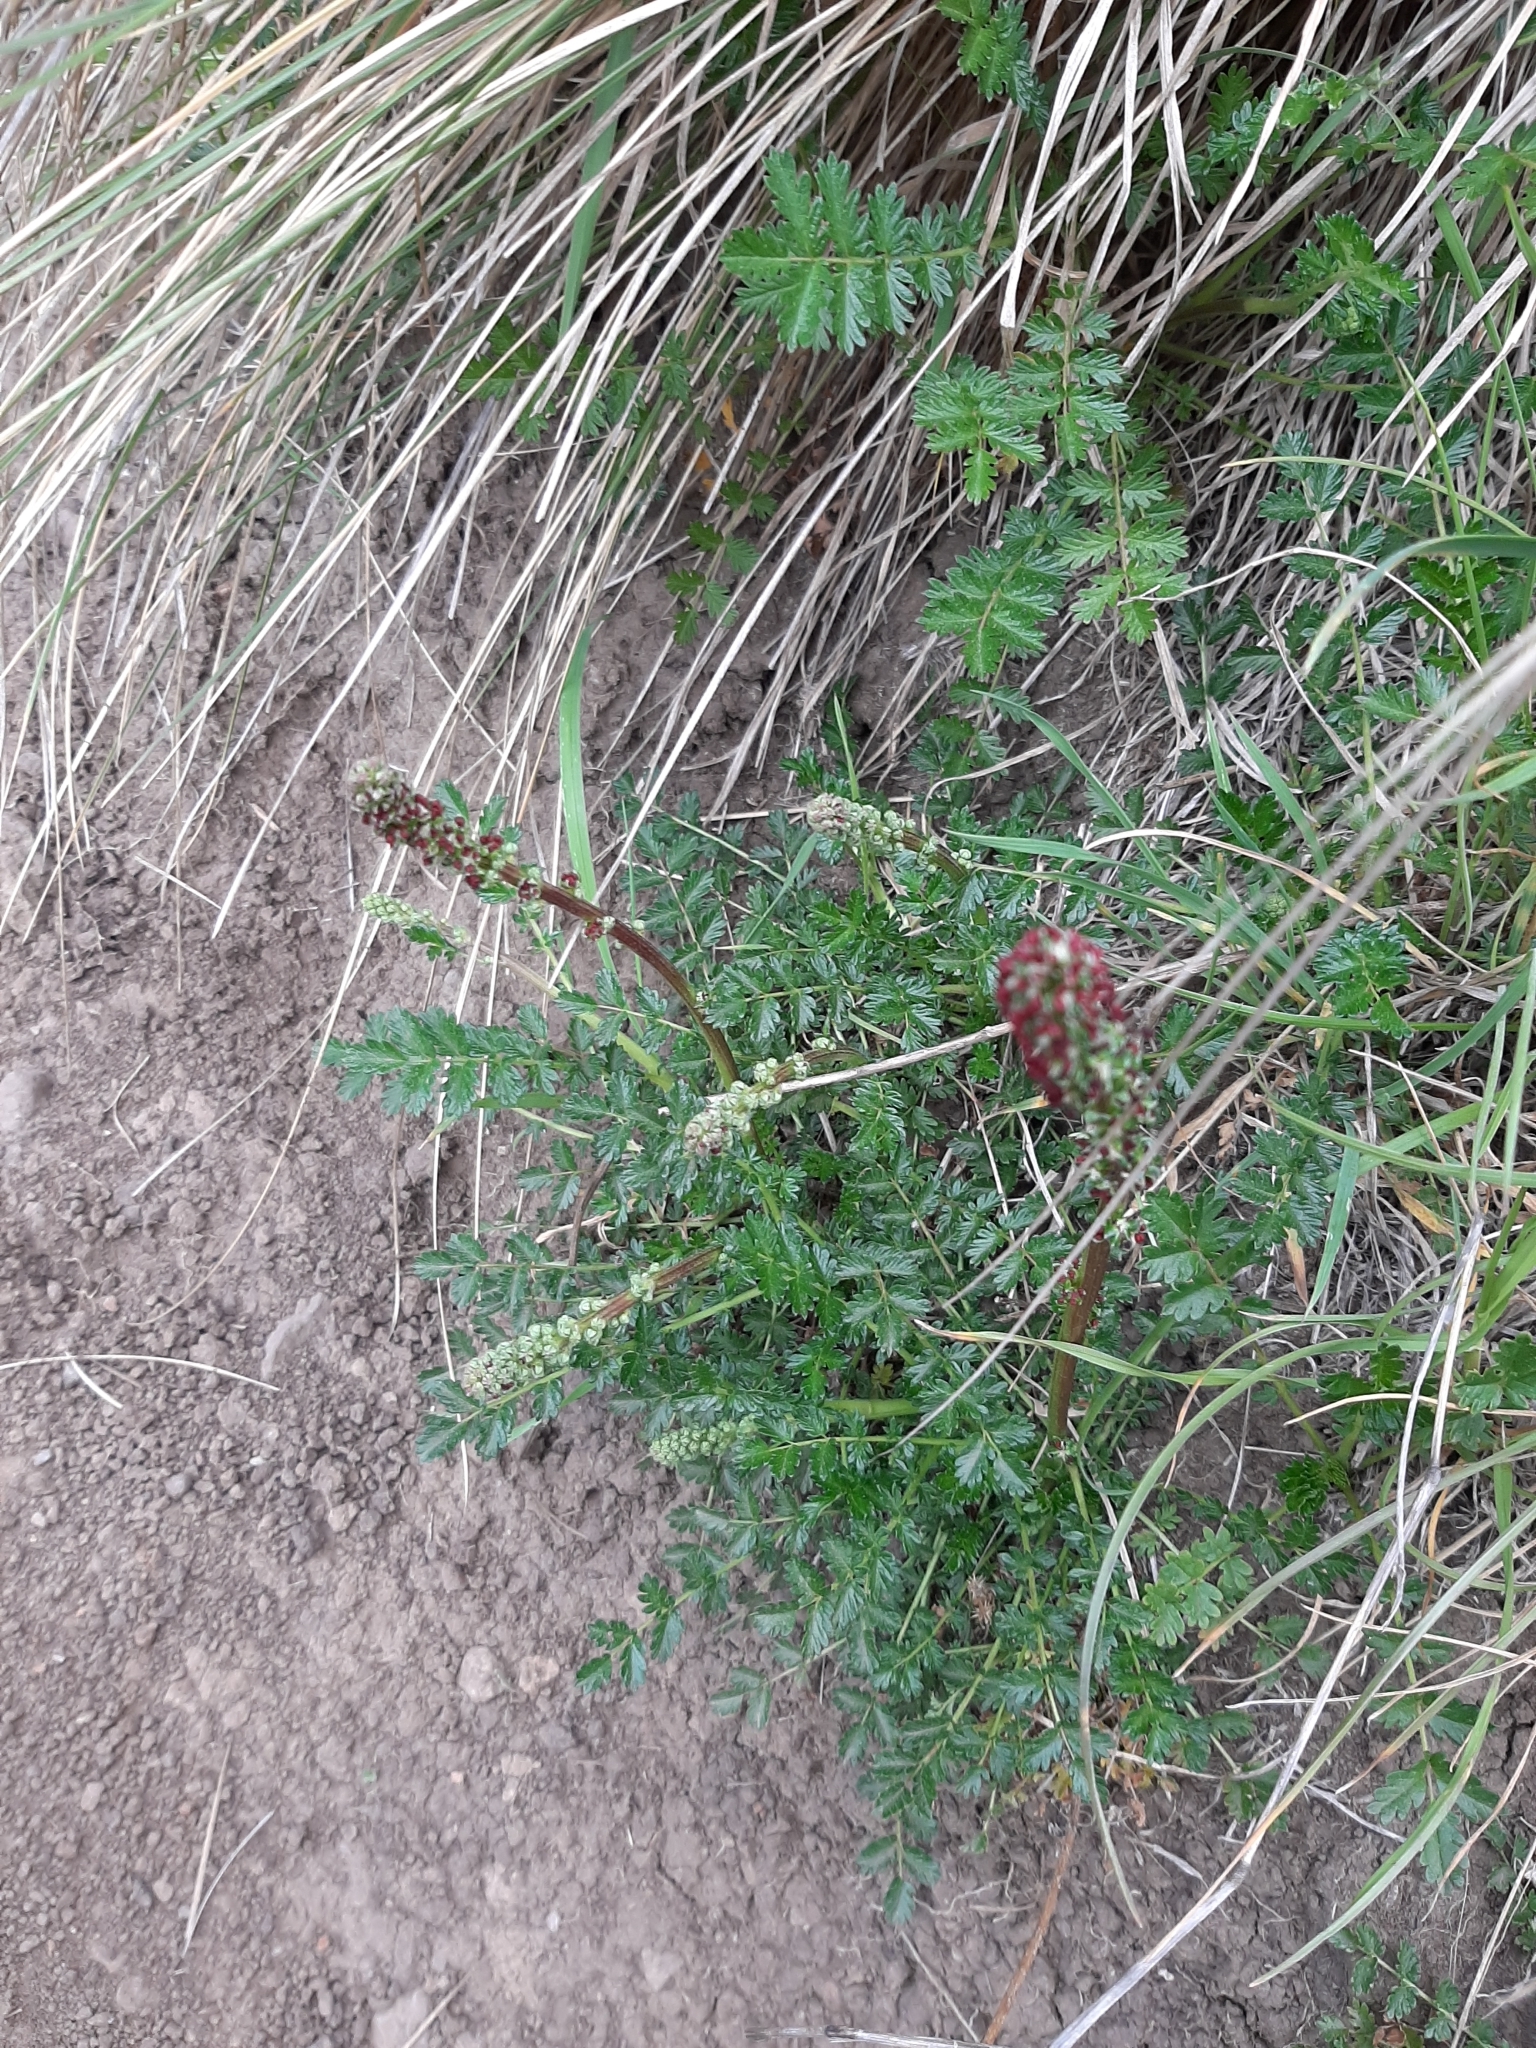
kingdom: Plantae
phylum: Tracheophyta
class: Magnoliopsida
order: Rosales
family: Rosaceae
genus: Acaena
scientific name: Acaena agnipila
